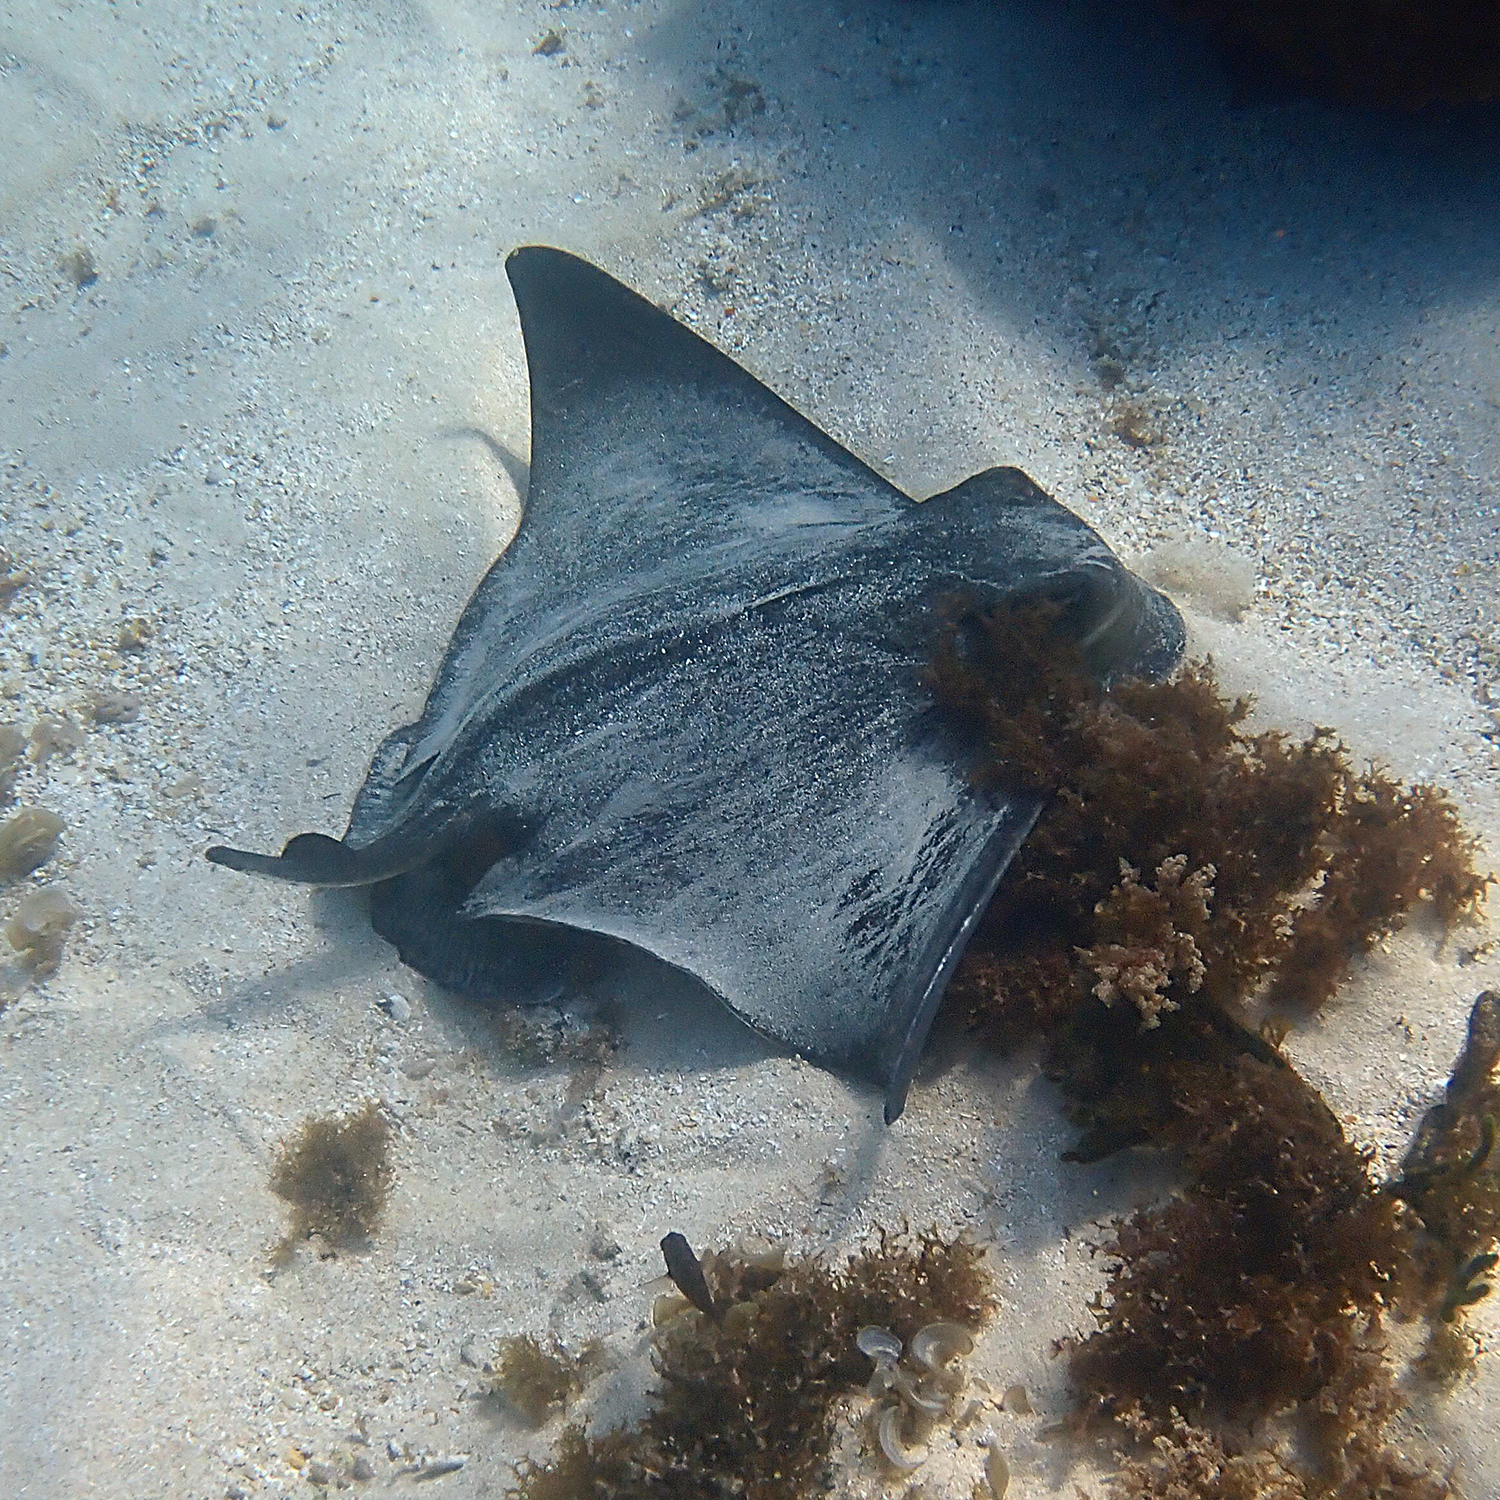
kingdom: Animalia
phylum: Chordata
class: Elasmobranchii
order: Myliobatiformes
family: Myliobatidae
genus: Myliobatis
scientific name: Myliobatis tenuicaudatus
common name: Eagle ray
